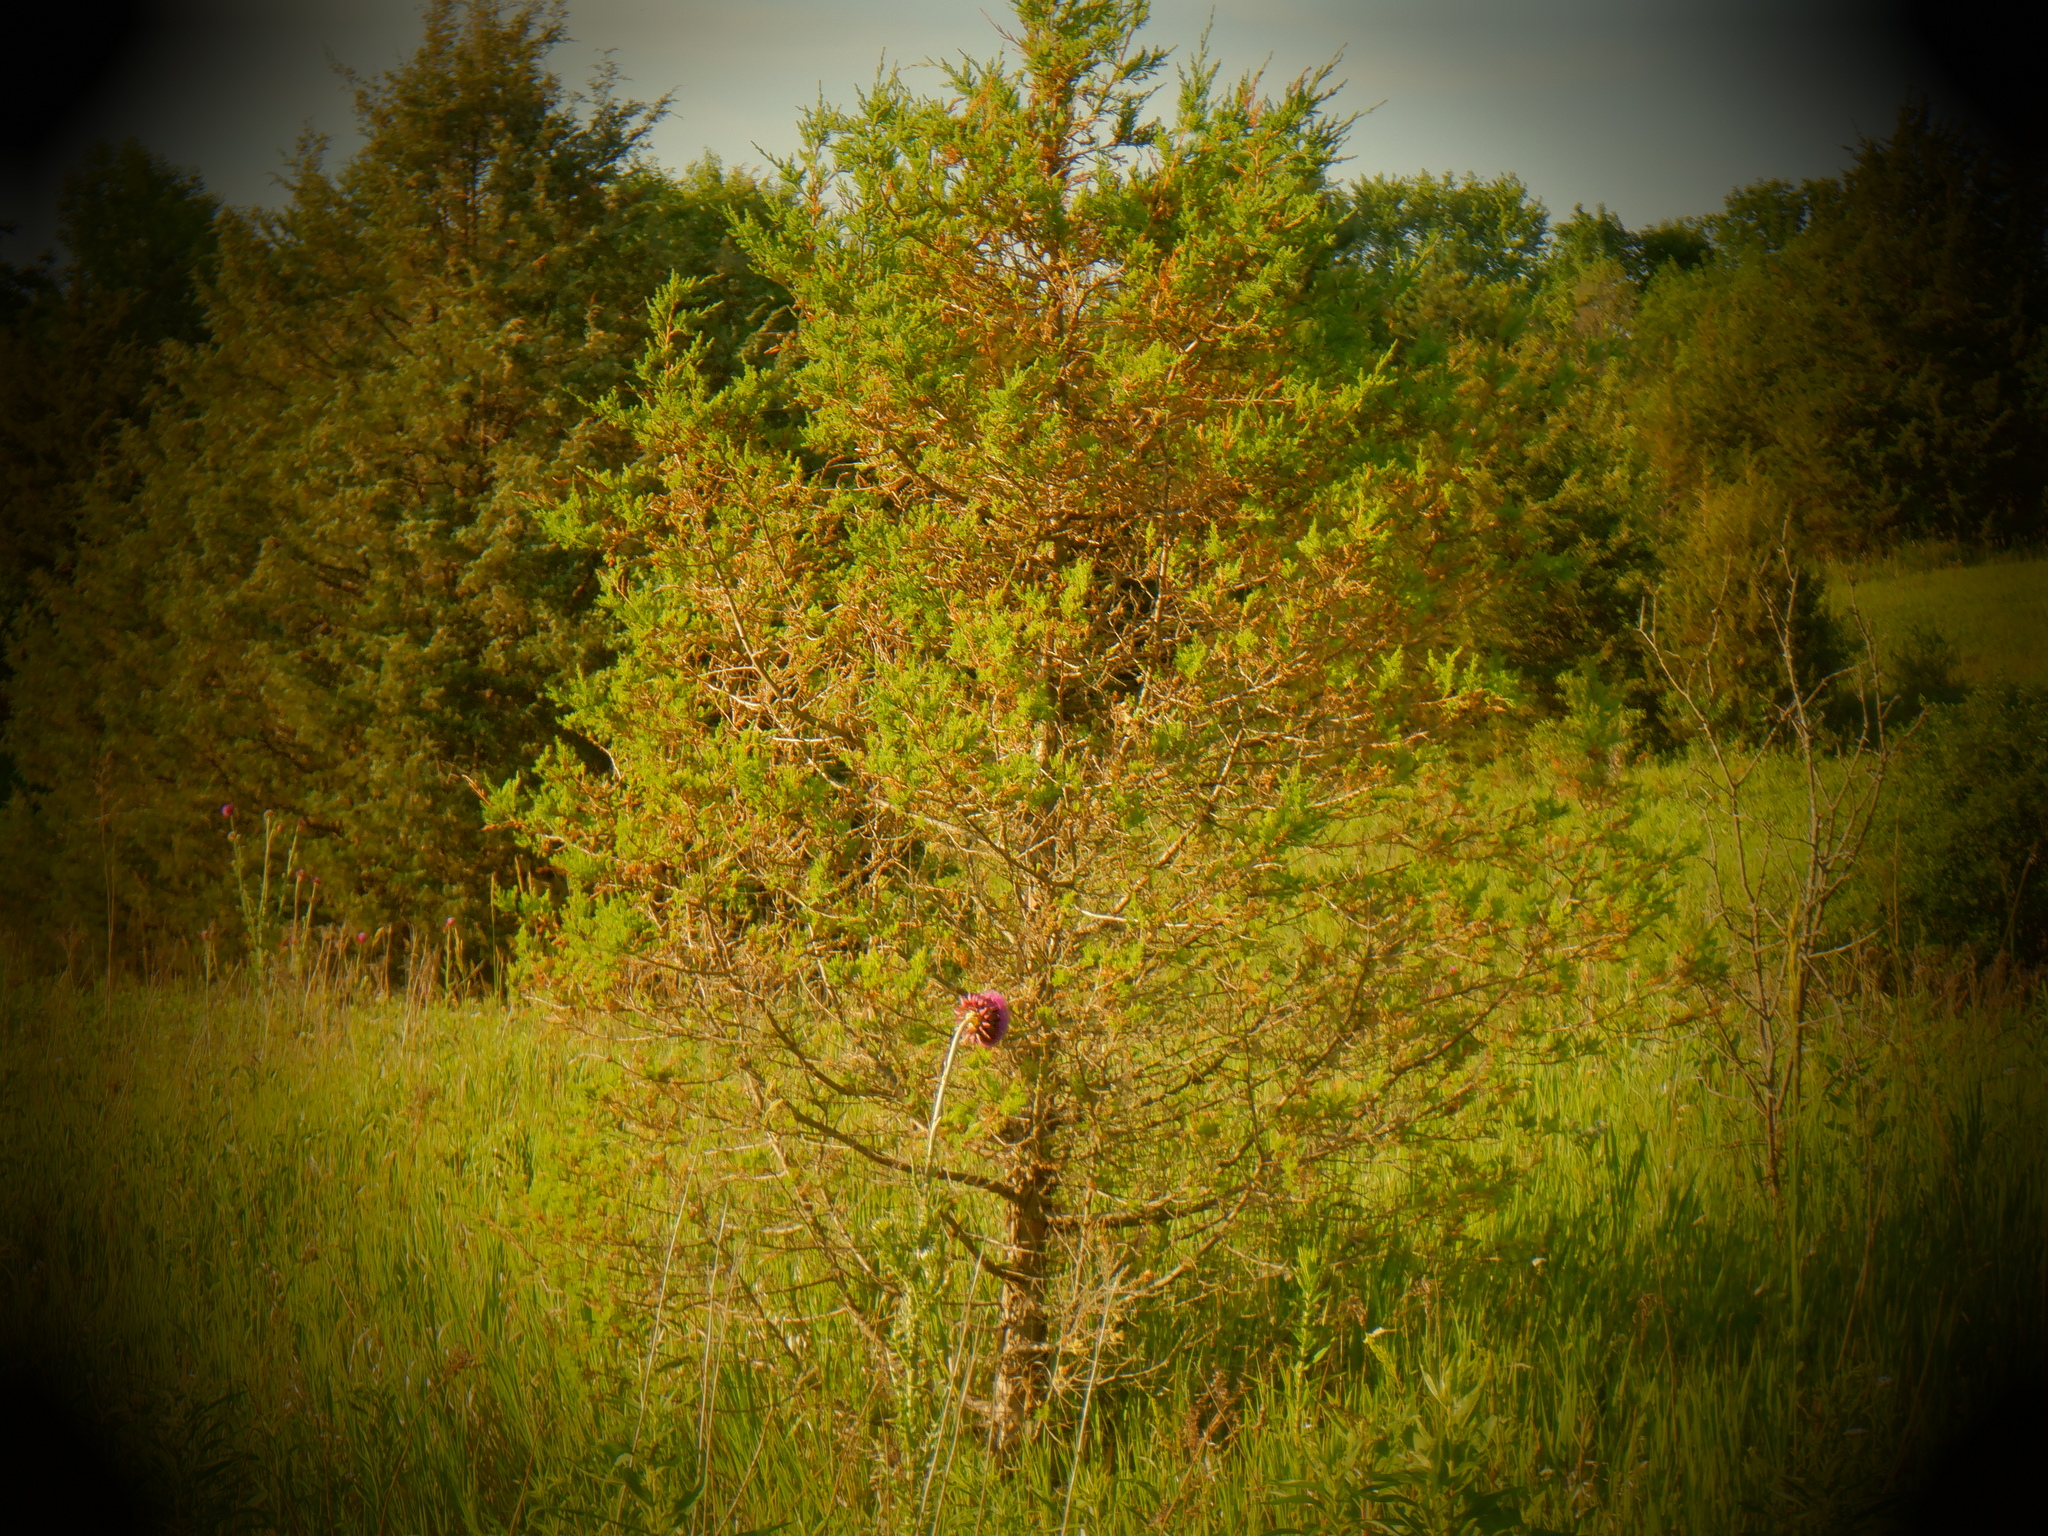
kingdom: Plantae
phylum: Tracheophyta
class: Pinopsida
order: Pinales
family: Cupressaceae
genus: Juniperus
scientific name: Juniperus virginiana
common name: Red juniper
